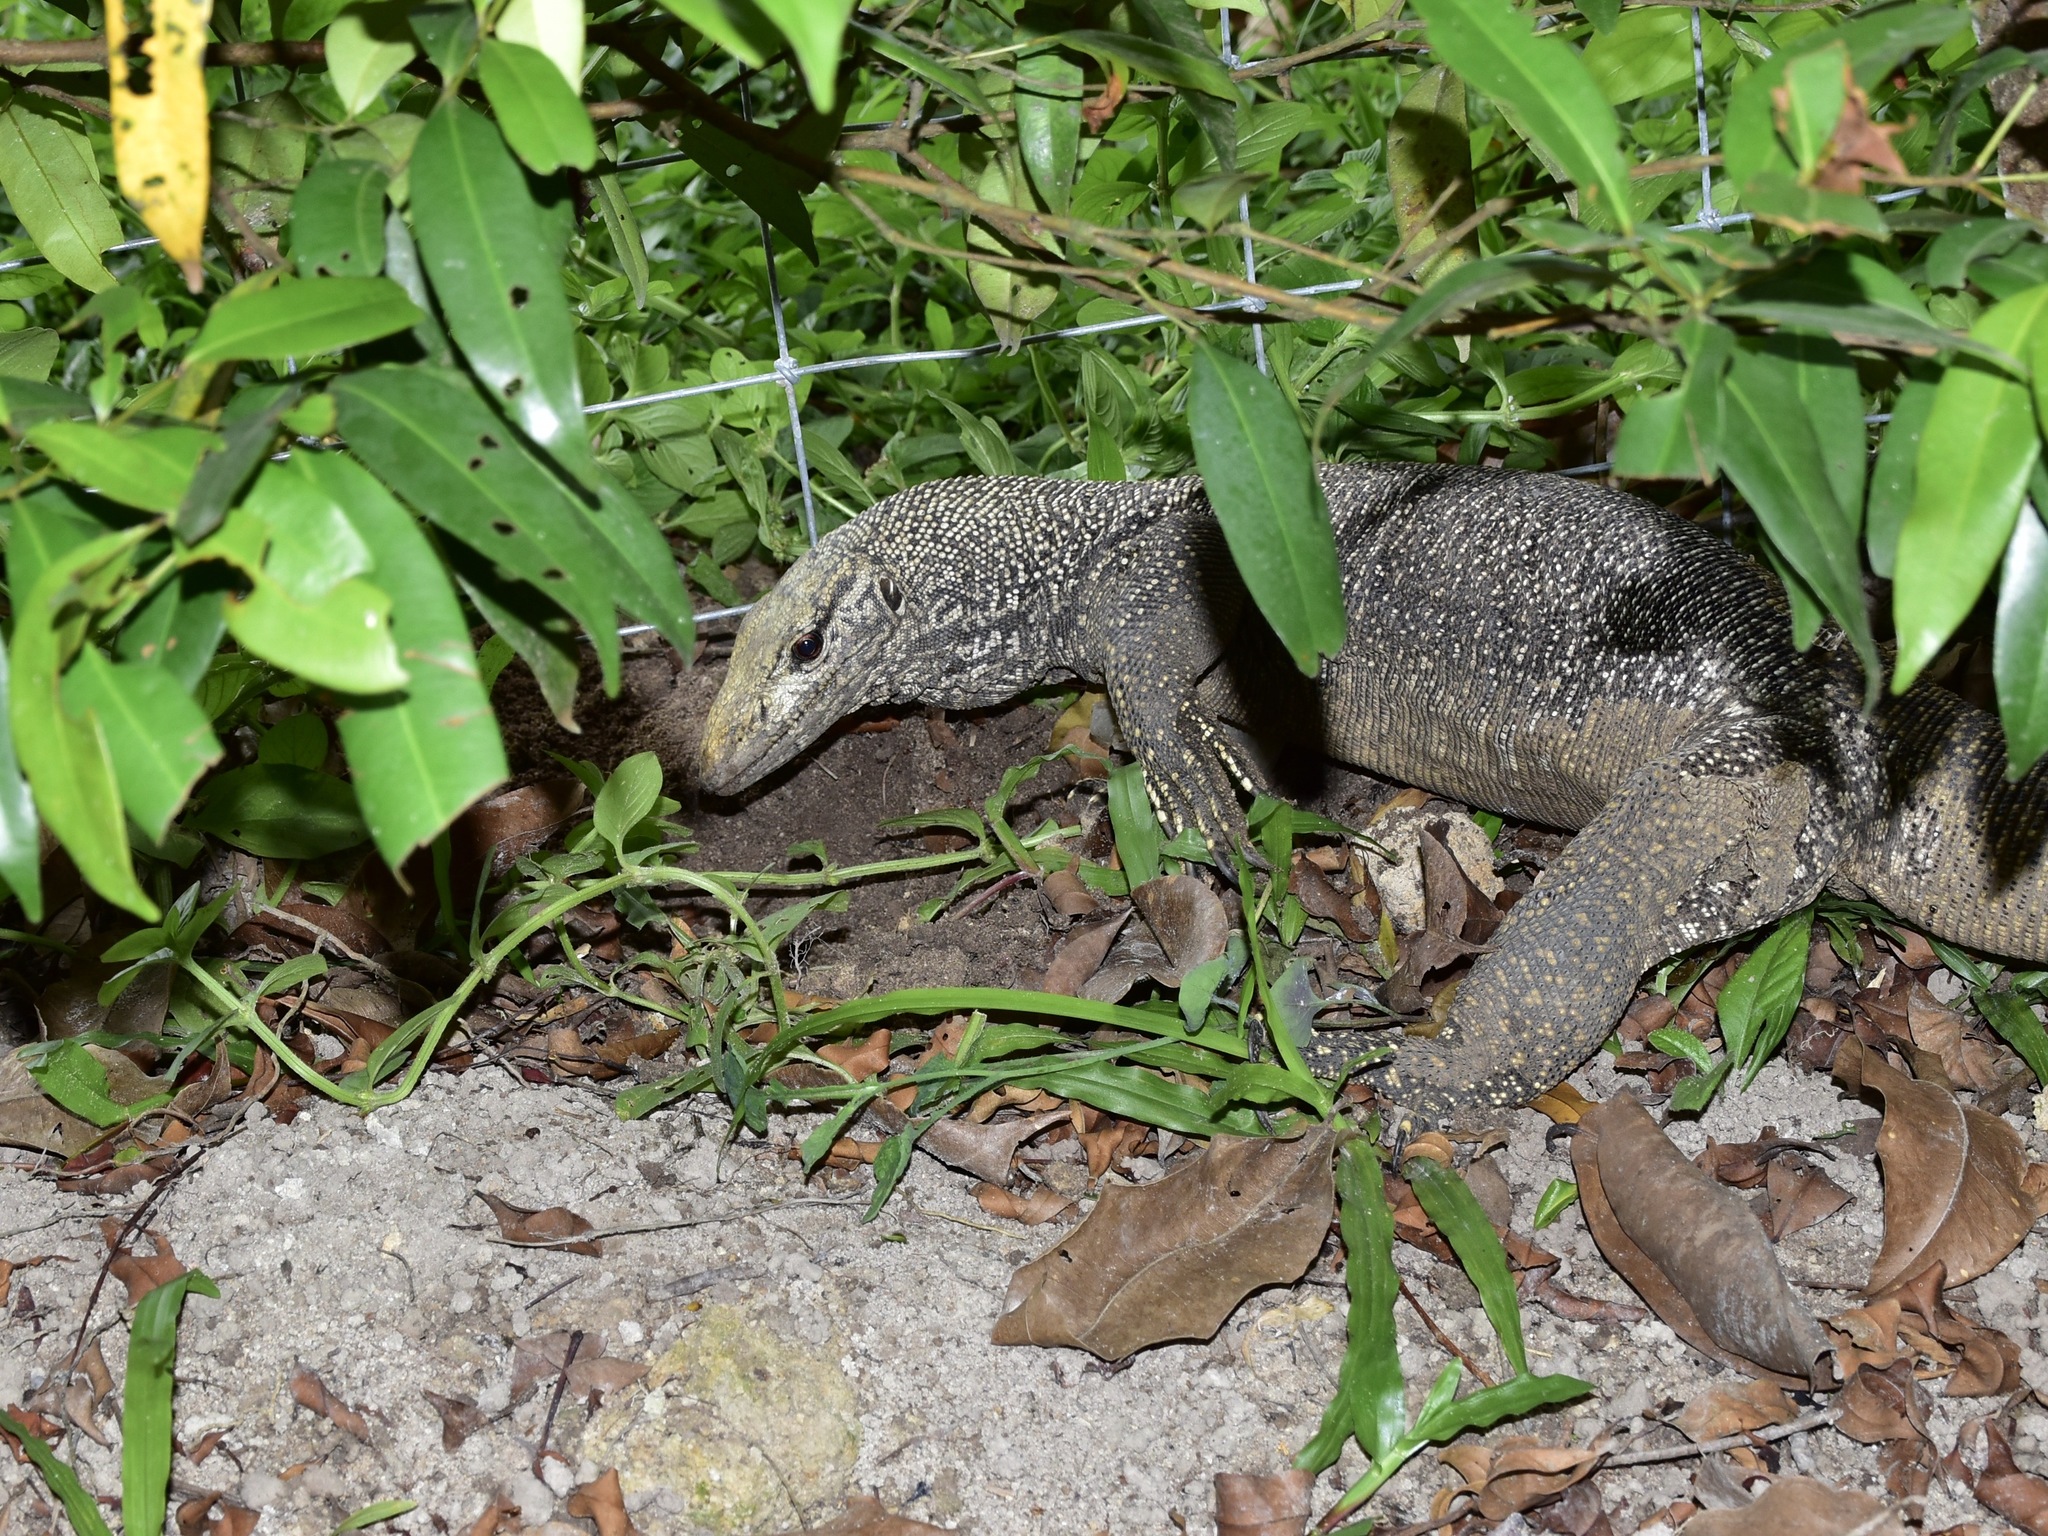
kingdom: Animalia
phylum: Chordata
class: Squamata
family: Varanidae
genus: Varanus
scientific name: Varanus nebulosus
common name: Clouded monitor
